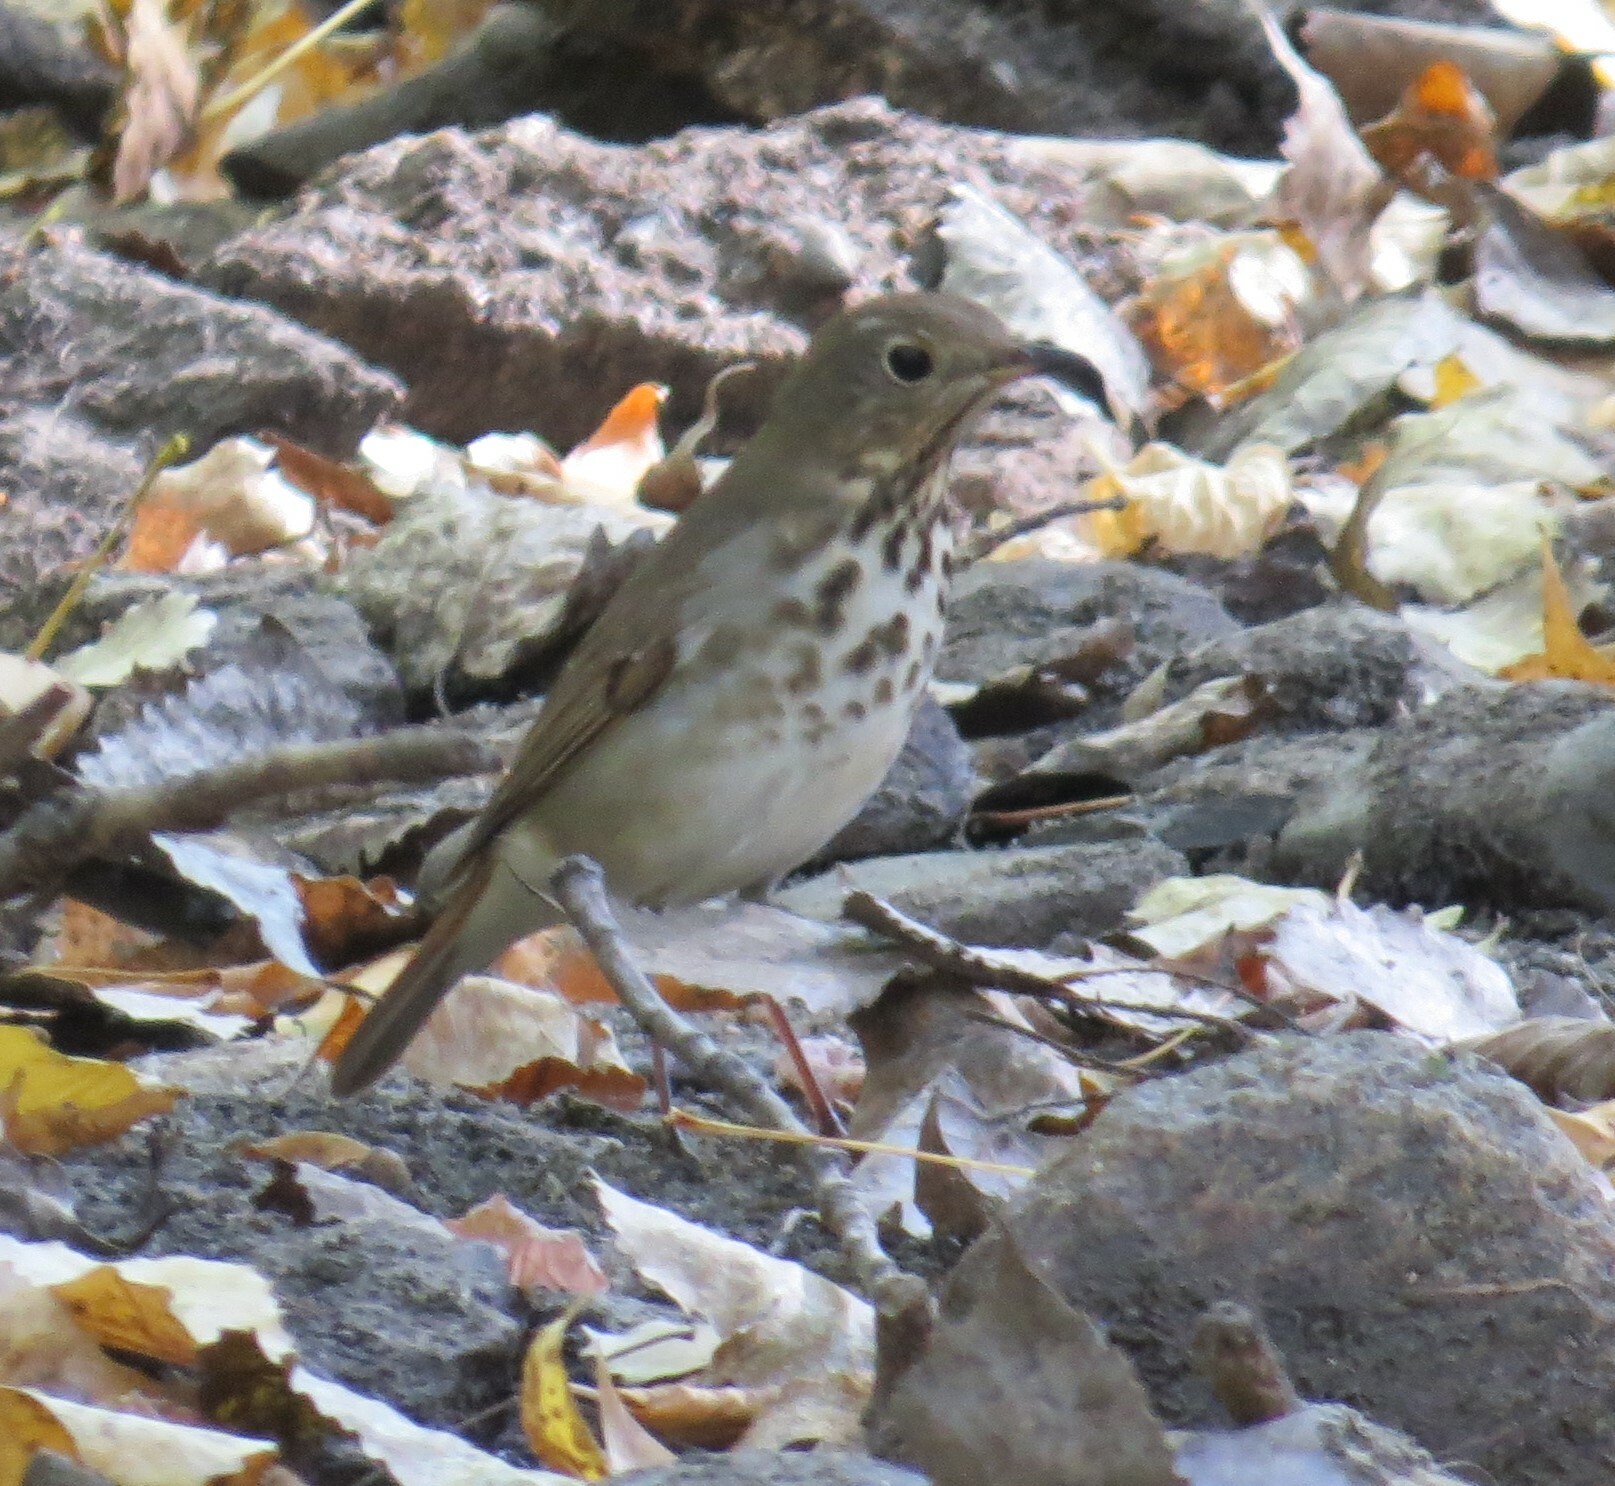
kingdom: Animalia
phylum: Chordata
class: Aves
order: Passeriformes
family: Turdidae
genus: Catharus
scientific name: Catharus guttatus
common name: Hermit thrush
